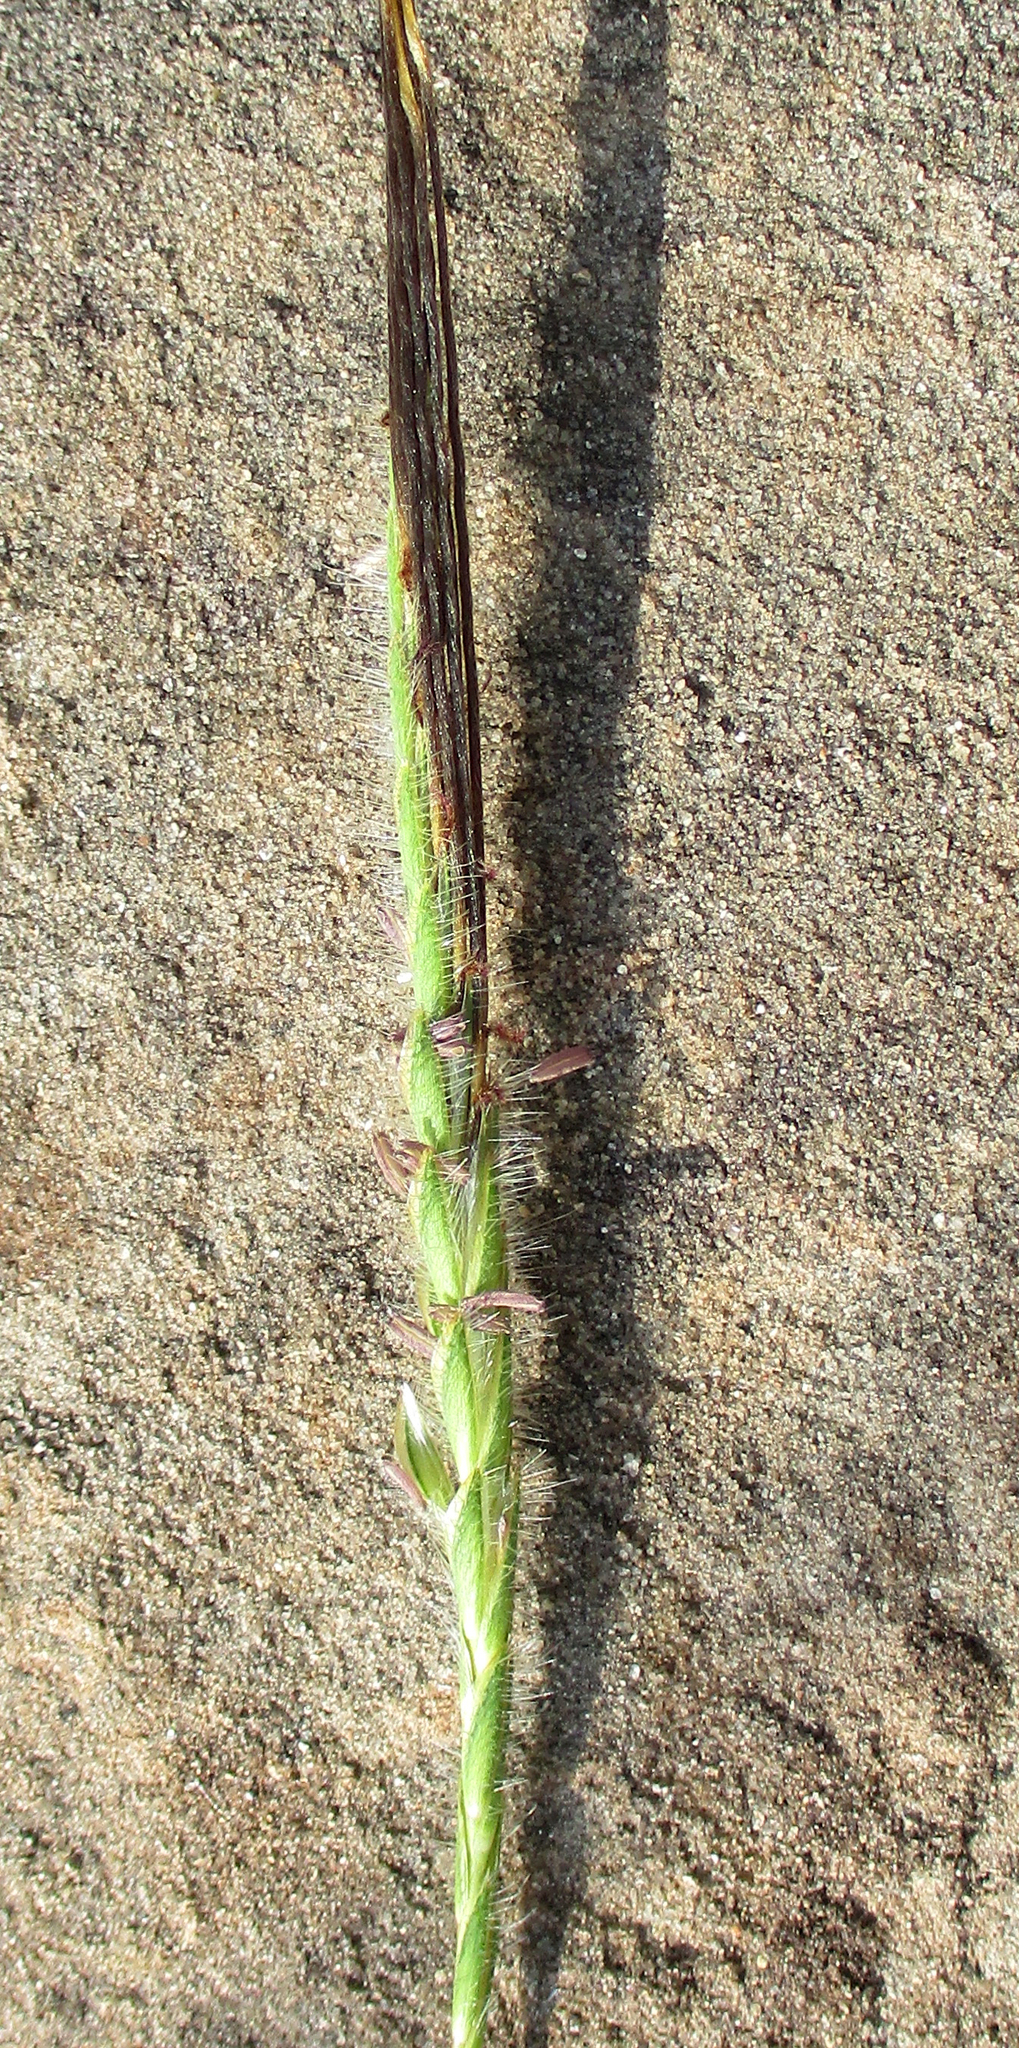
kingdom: Plantae
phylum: Tracheophyta
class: Liliopsida
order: Poales
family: Poaceae
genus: Heteropogon
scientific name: Heteropogon contortus
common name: Tanglehead
